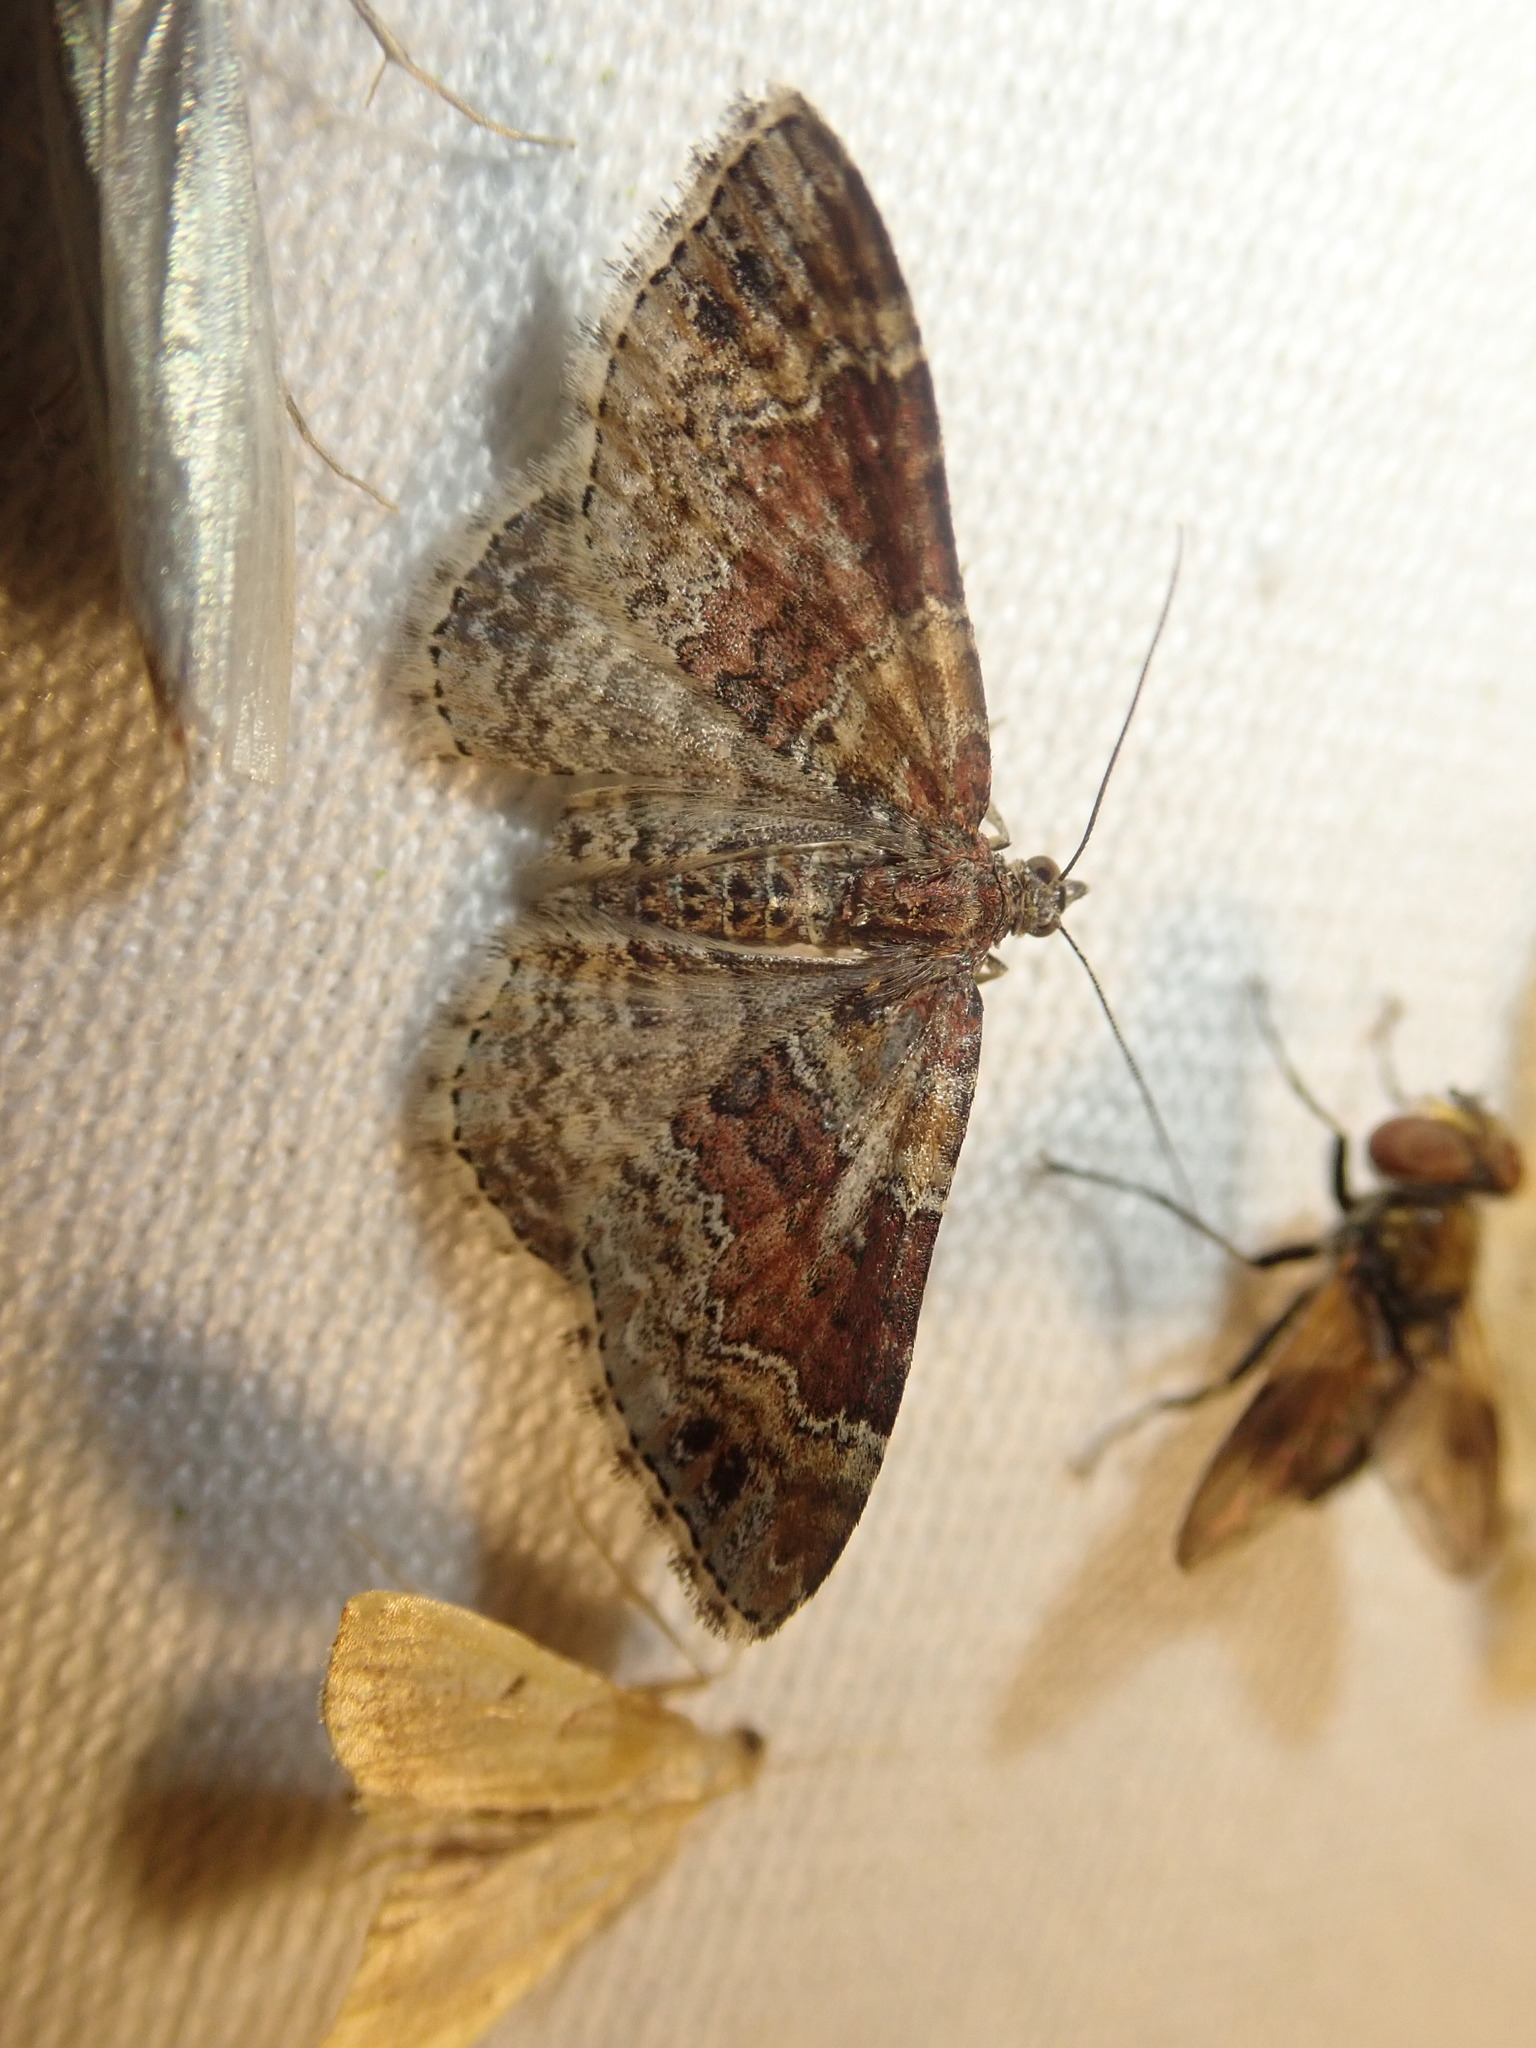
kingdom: Animalia
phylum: Arthropoda
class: Insecta
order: Lepidoptera
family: Geometridae
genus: Xanthorhoe
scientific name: Xanthorhoe spadicearia
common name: Red twin-spot carpet
